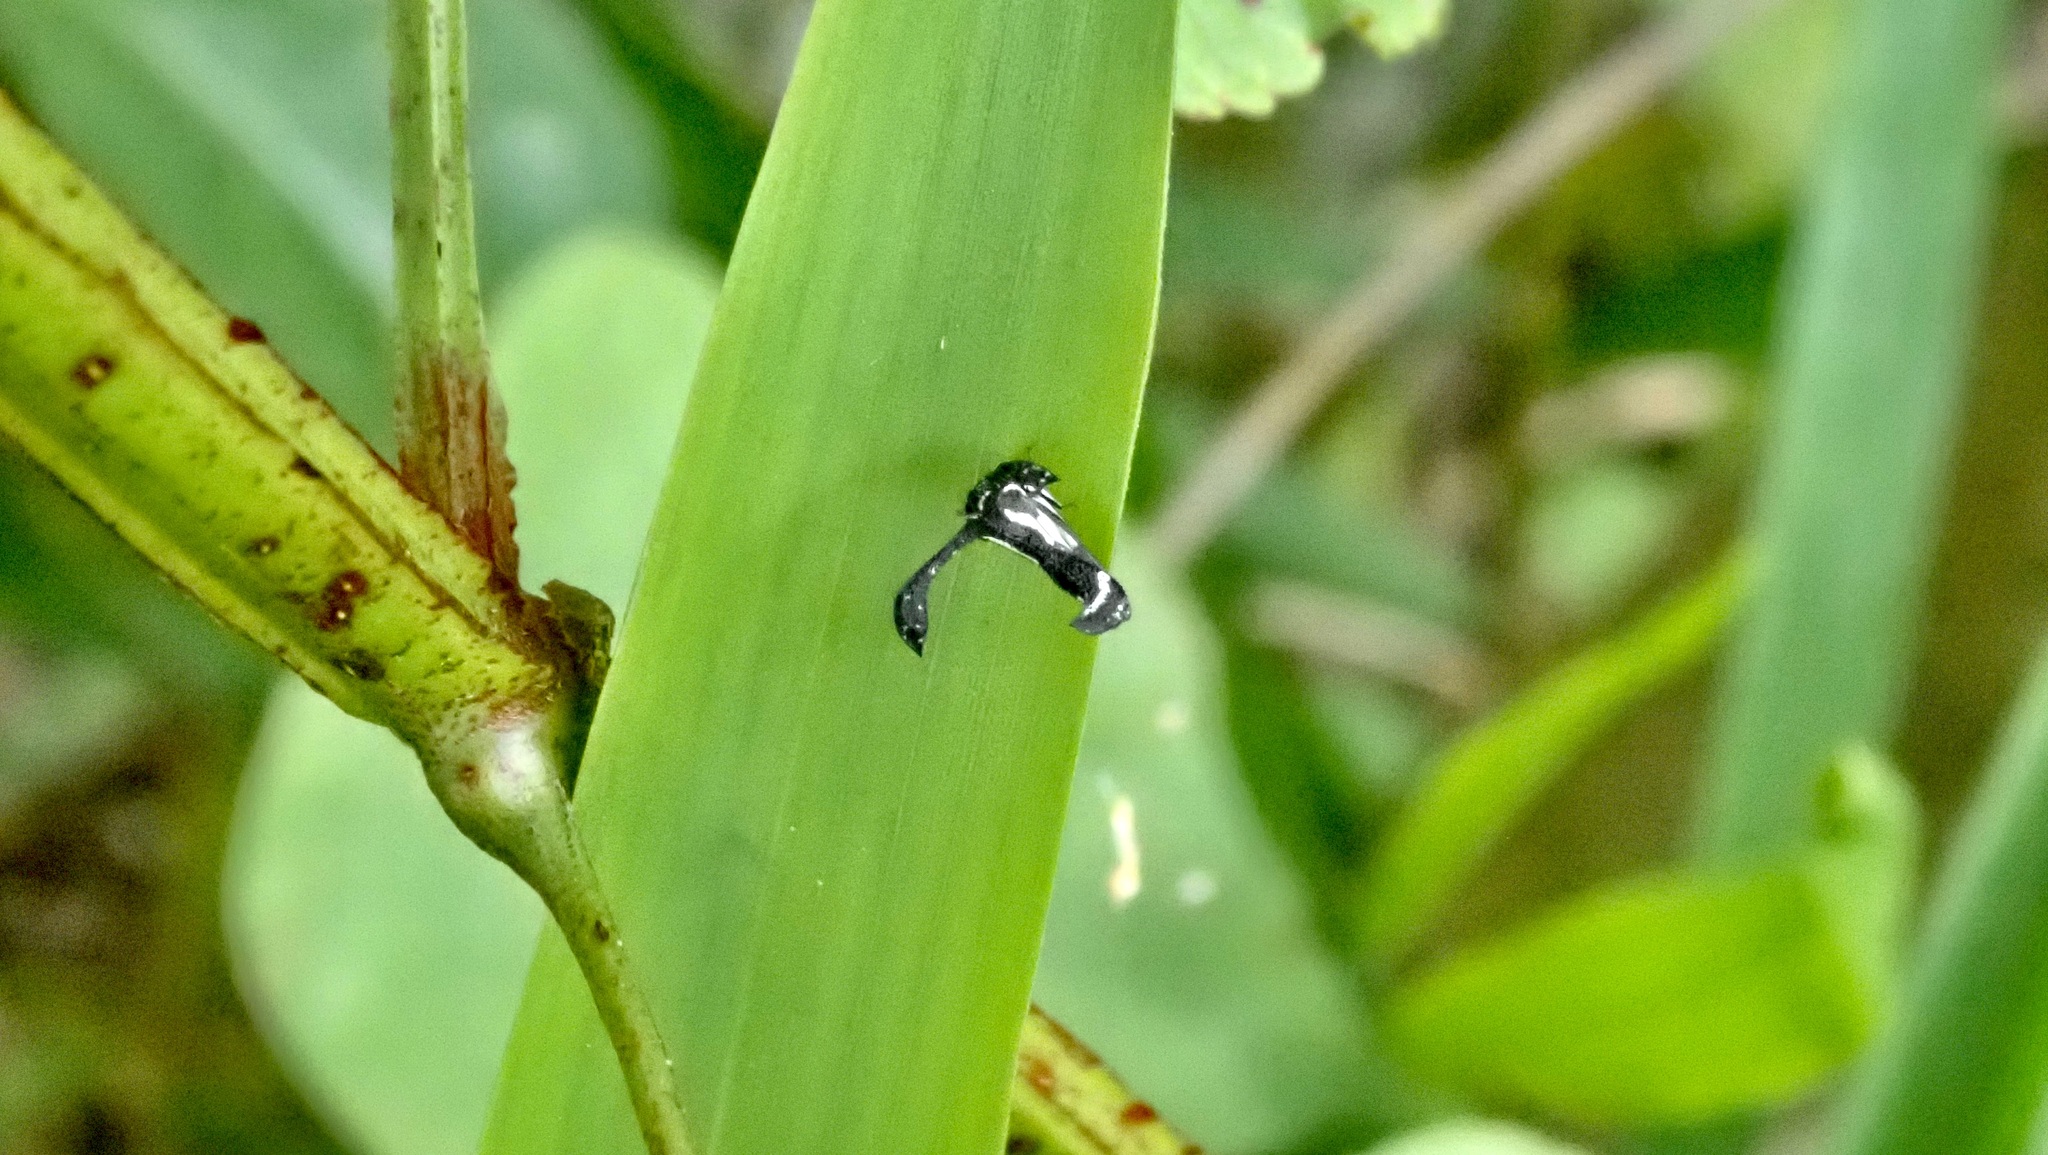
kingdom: Animalia
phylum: Arthropoda
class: Insecta
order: Hemiptera
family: Membracidae
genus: Notocera
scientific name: Notocera cruciatus
